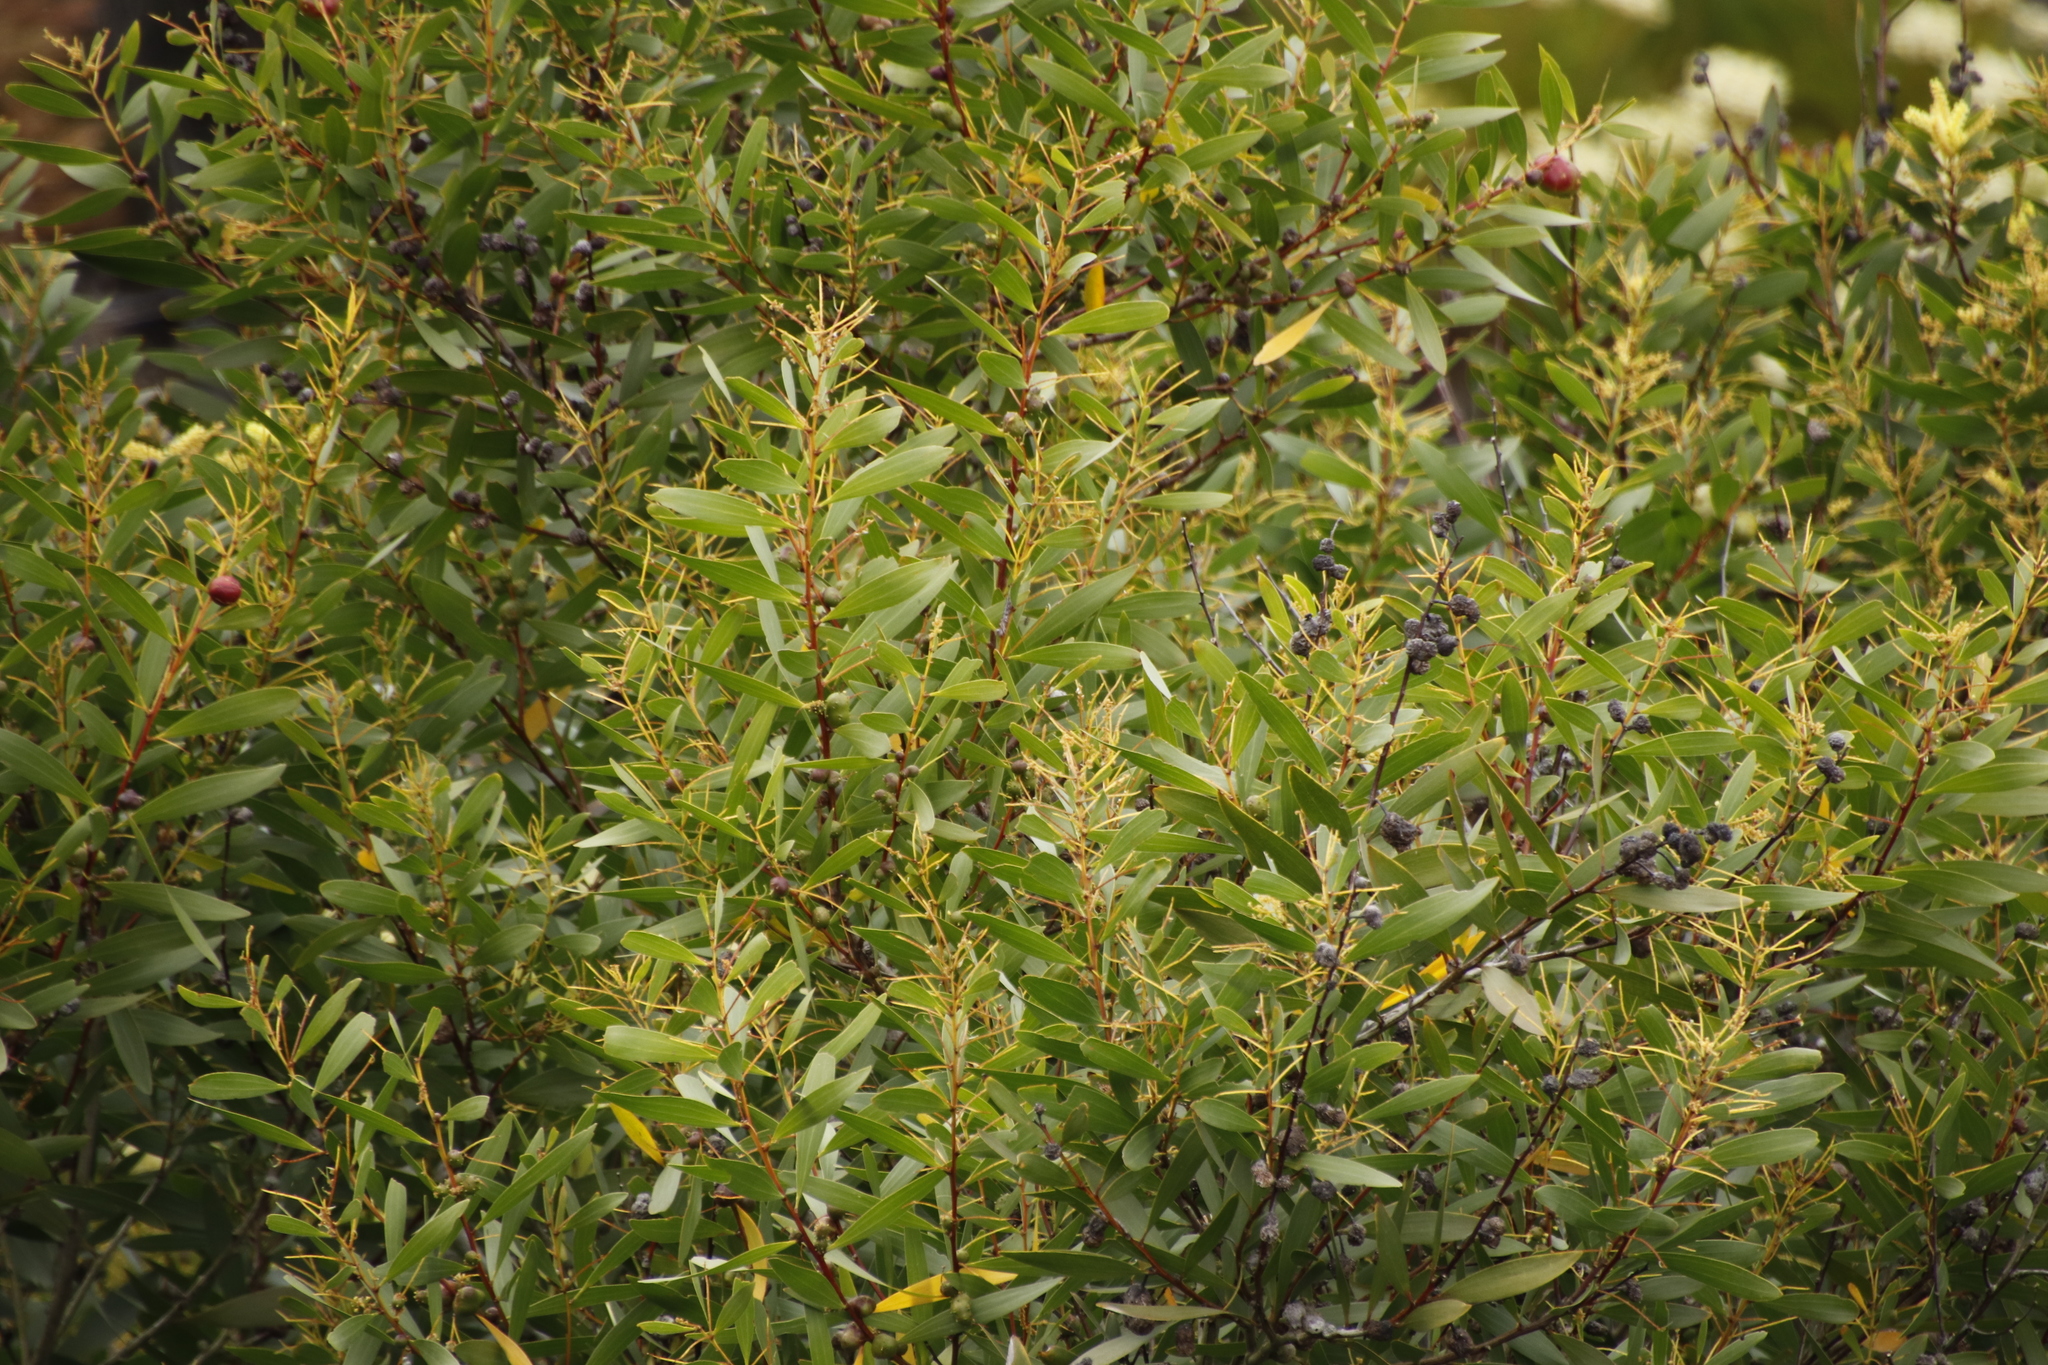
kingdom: Plantae
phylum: Tracheophyta
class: Magnoliopsida
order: Fabales
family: Fabaceae
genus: Acacia
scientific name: Acacia longifolia
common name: Sydney golden wattle
